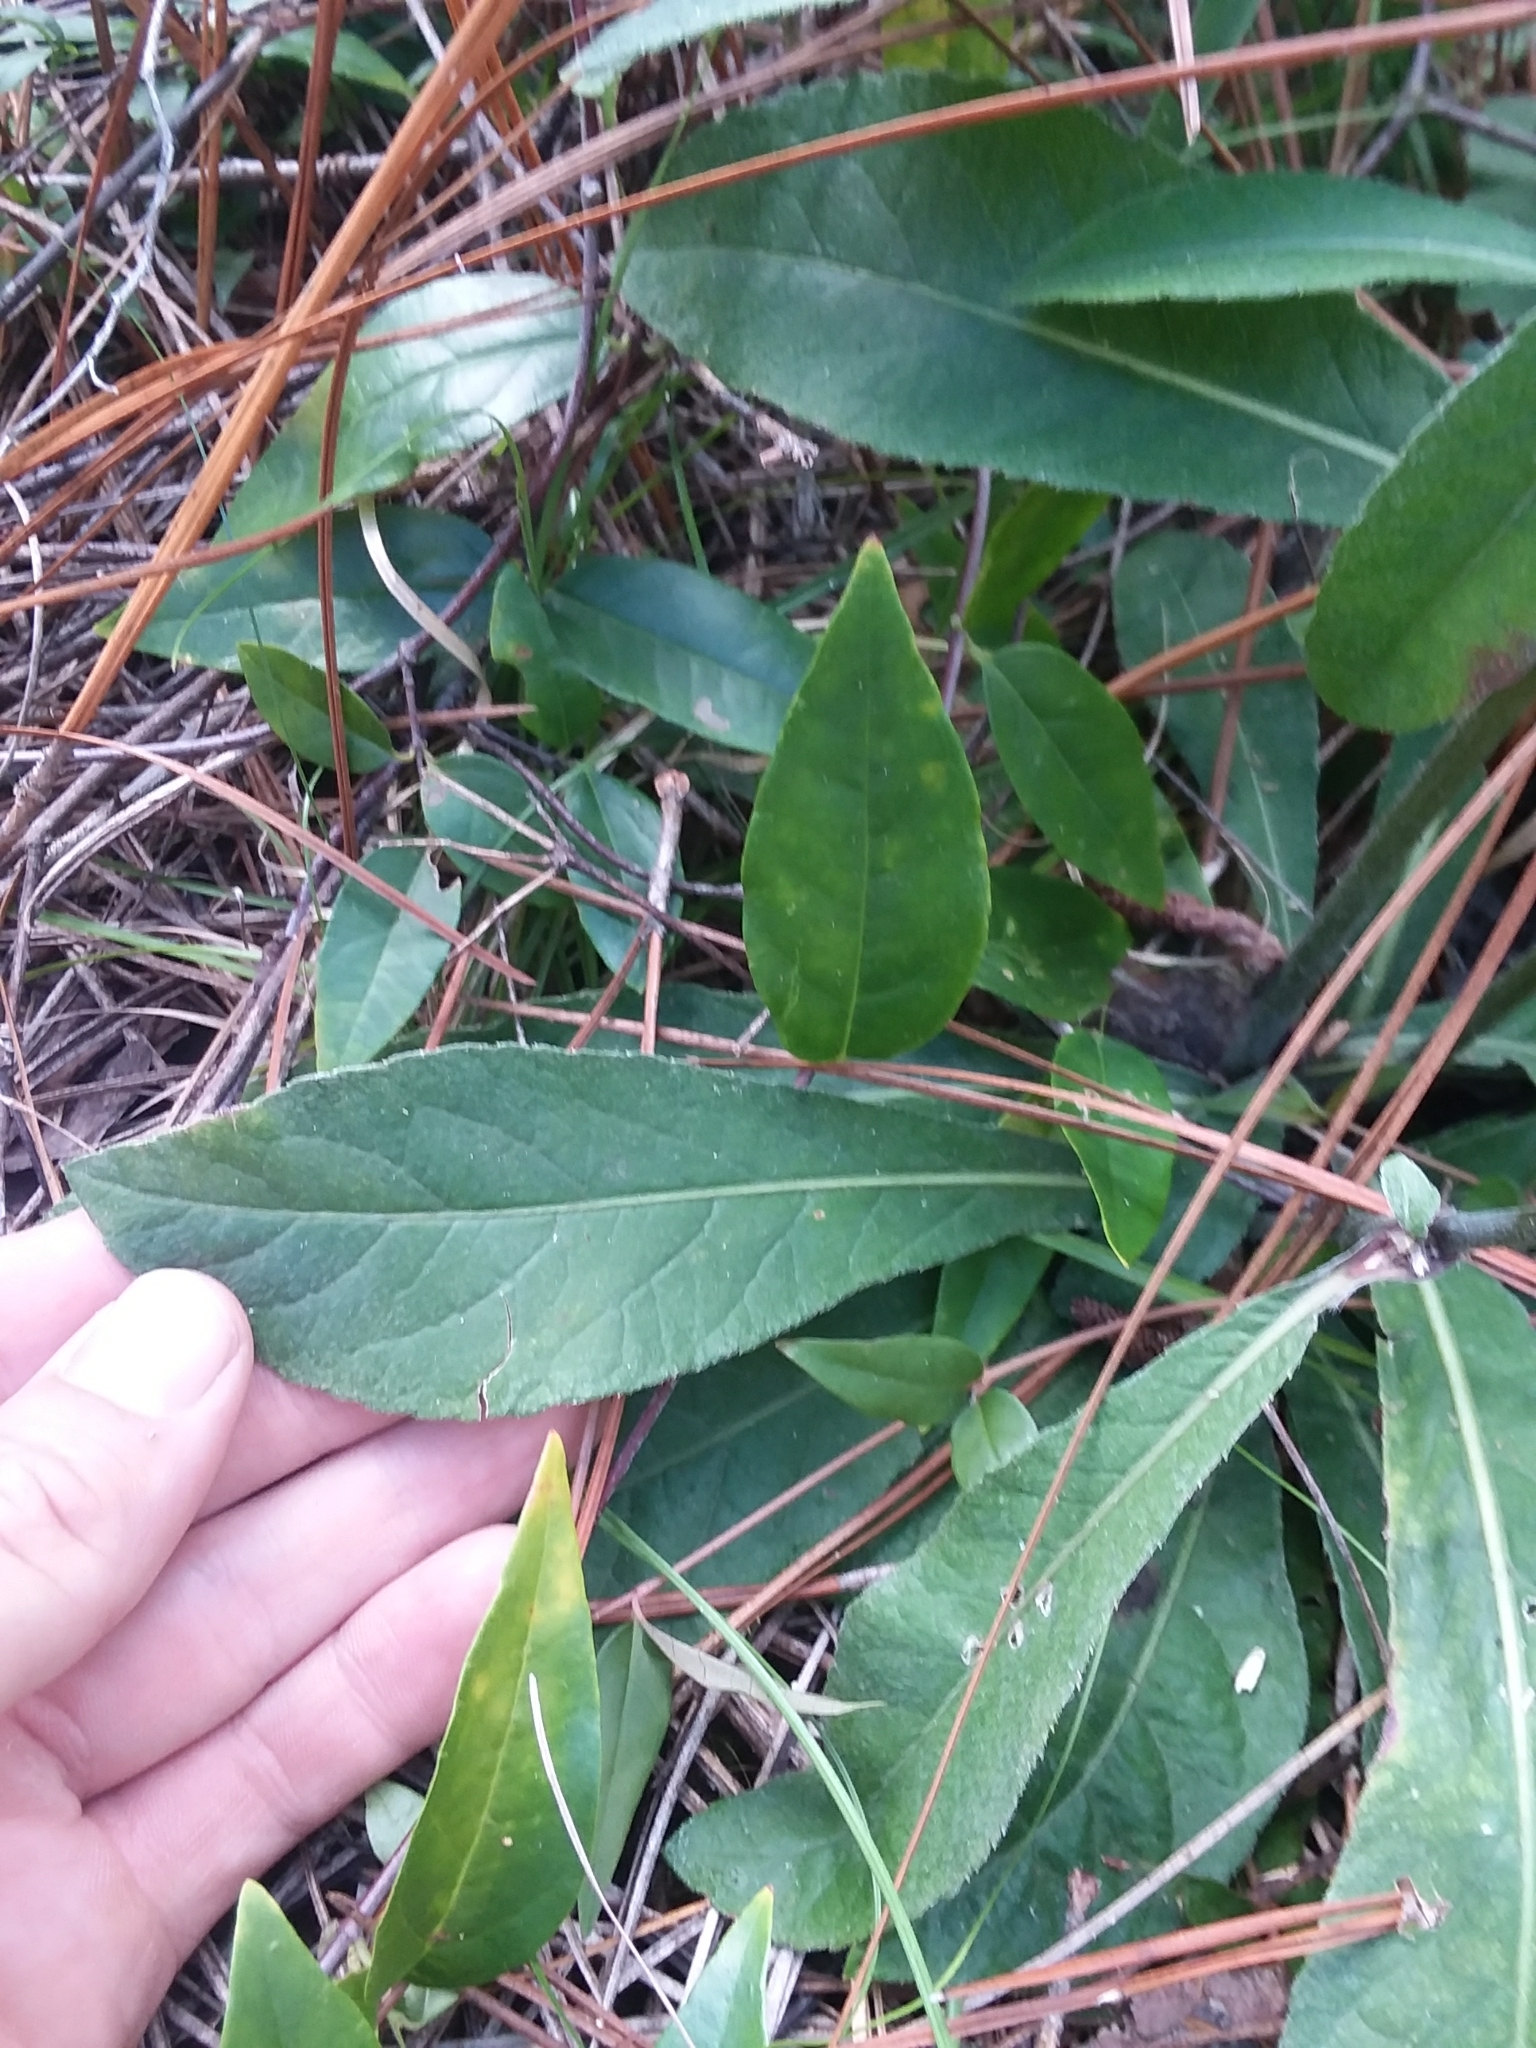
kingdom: Plantae
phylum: Tracheophyta
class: Magnoliopsida
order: Asterales
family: Asteraceae
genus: Elephantopus
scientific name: Elephantopus nudatus
